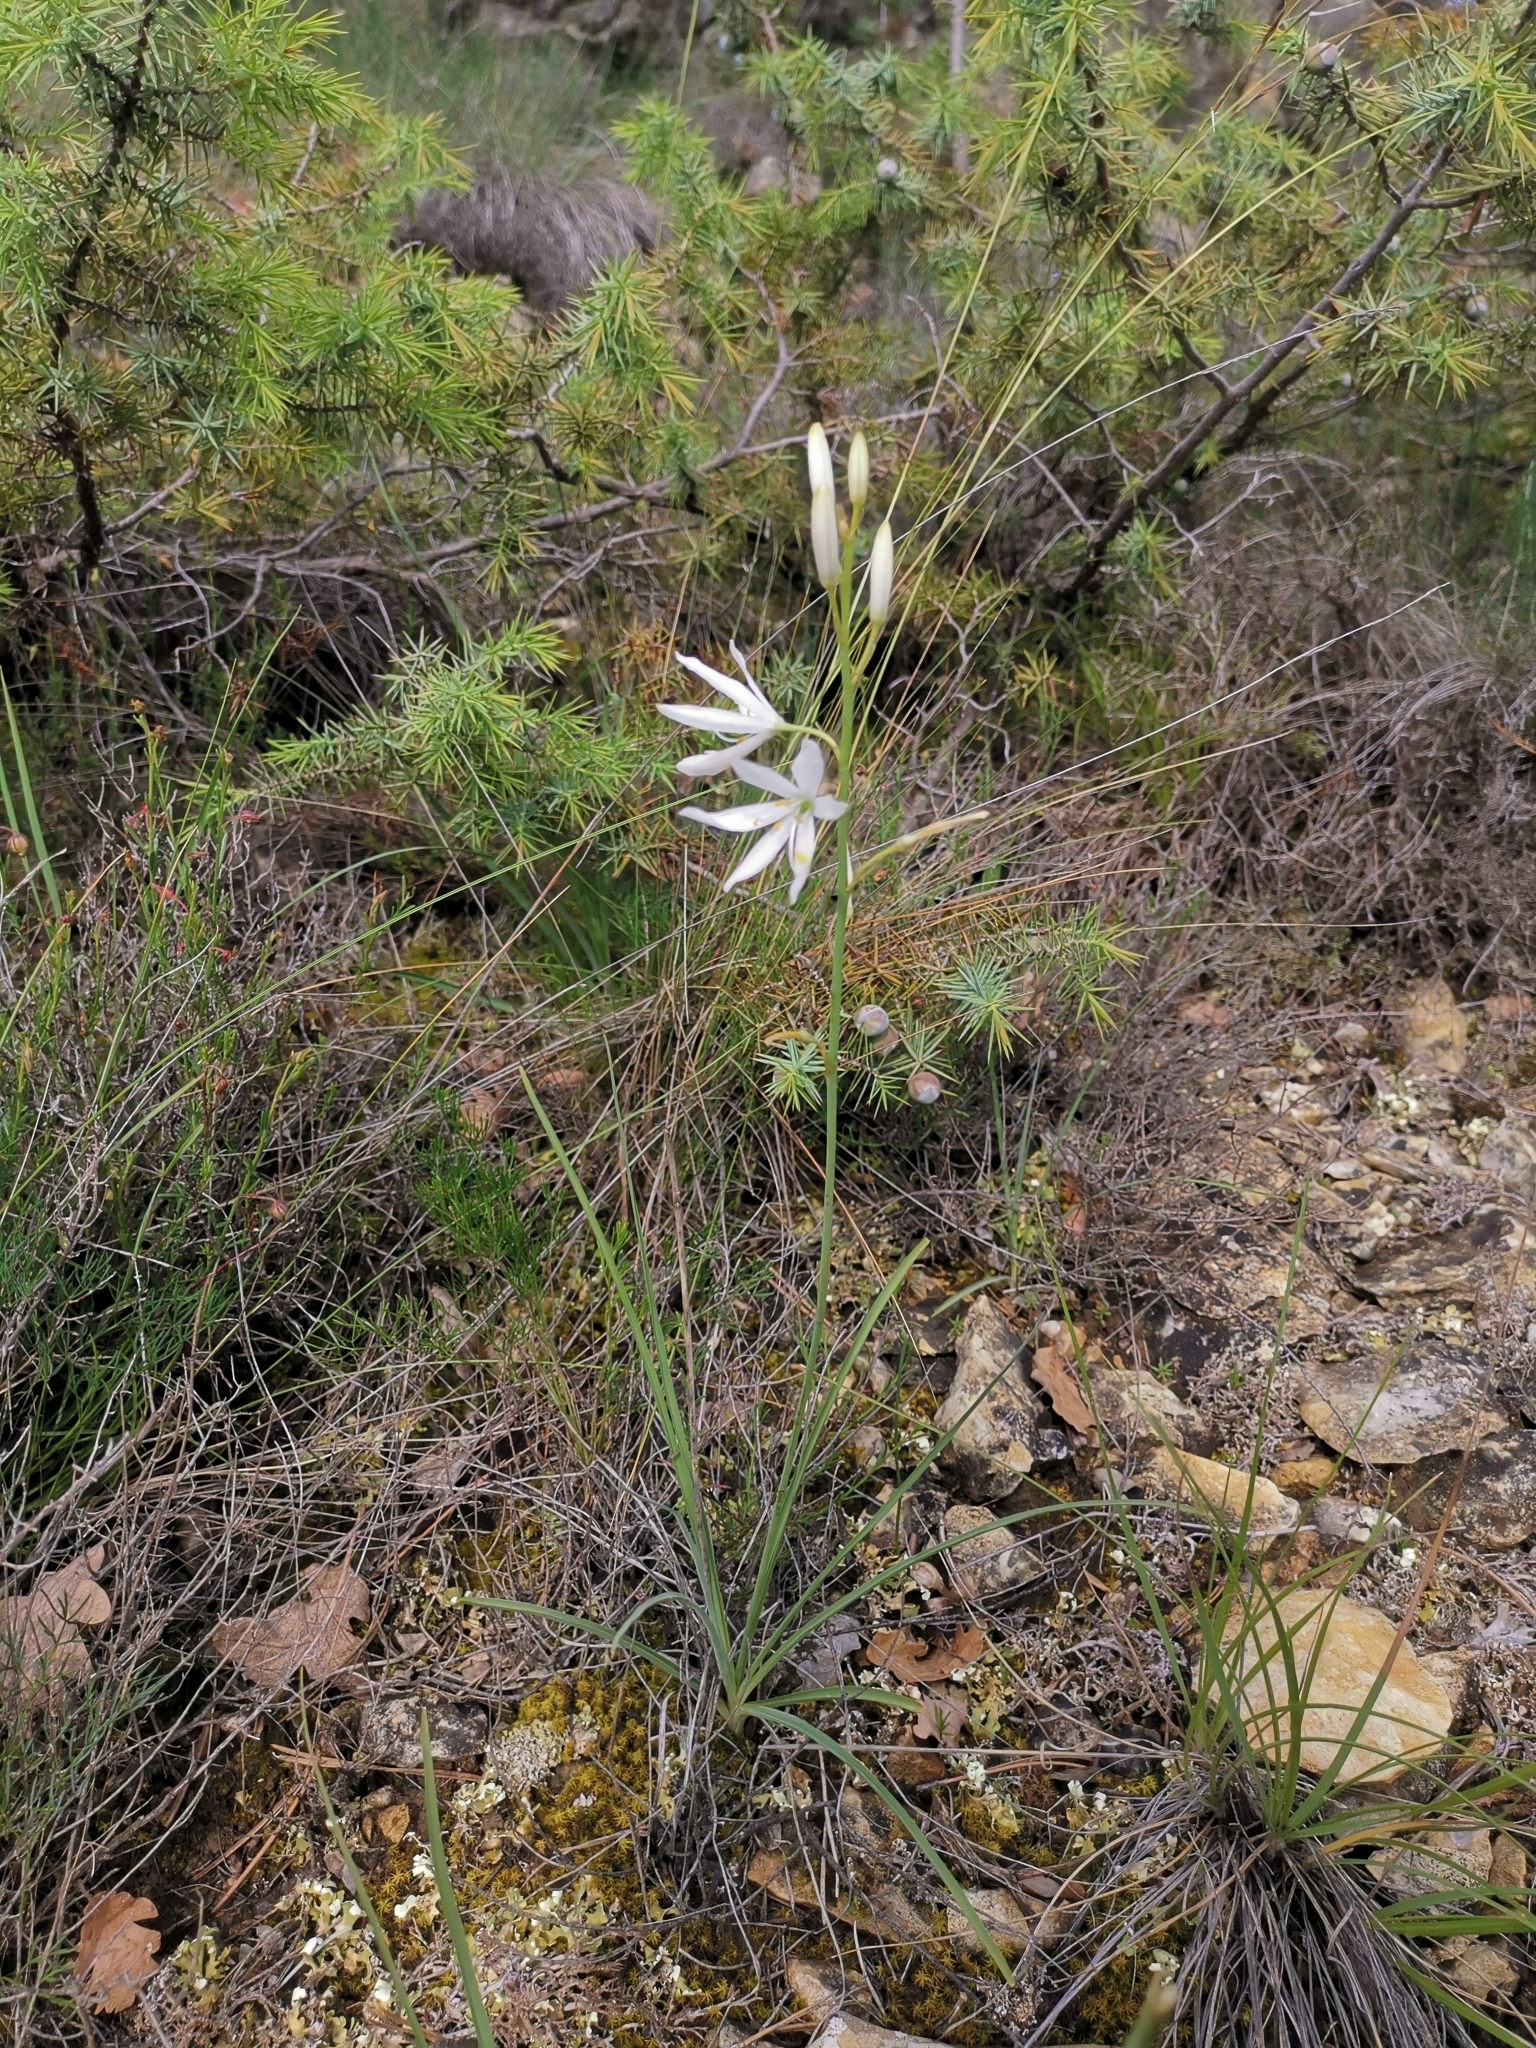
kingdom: Plantae
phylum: Tracheophyta
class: Liliopsida
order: Asparagales
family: Asparagaceae
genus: Anthericum
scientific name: Anthericum liliago
